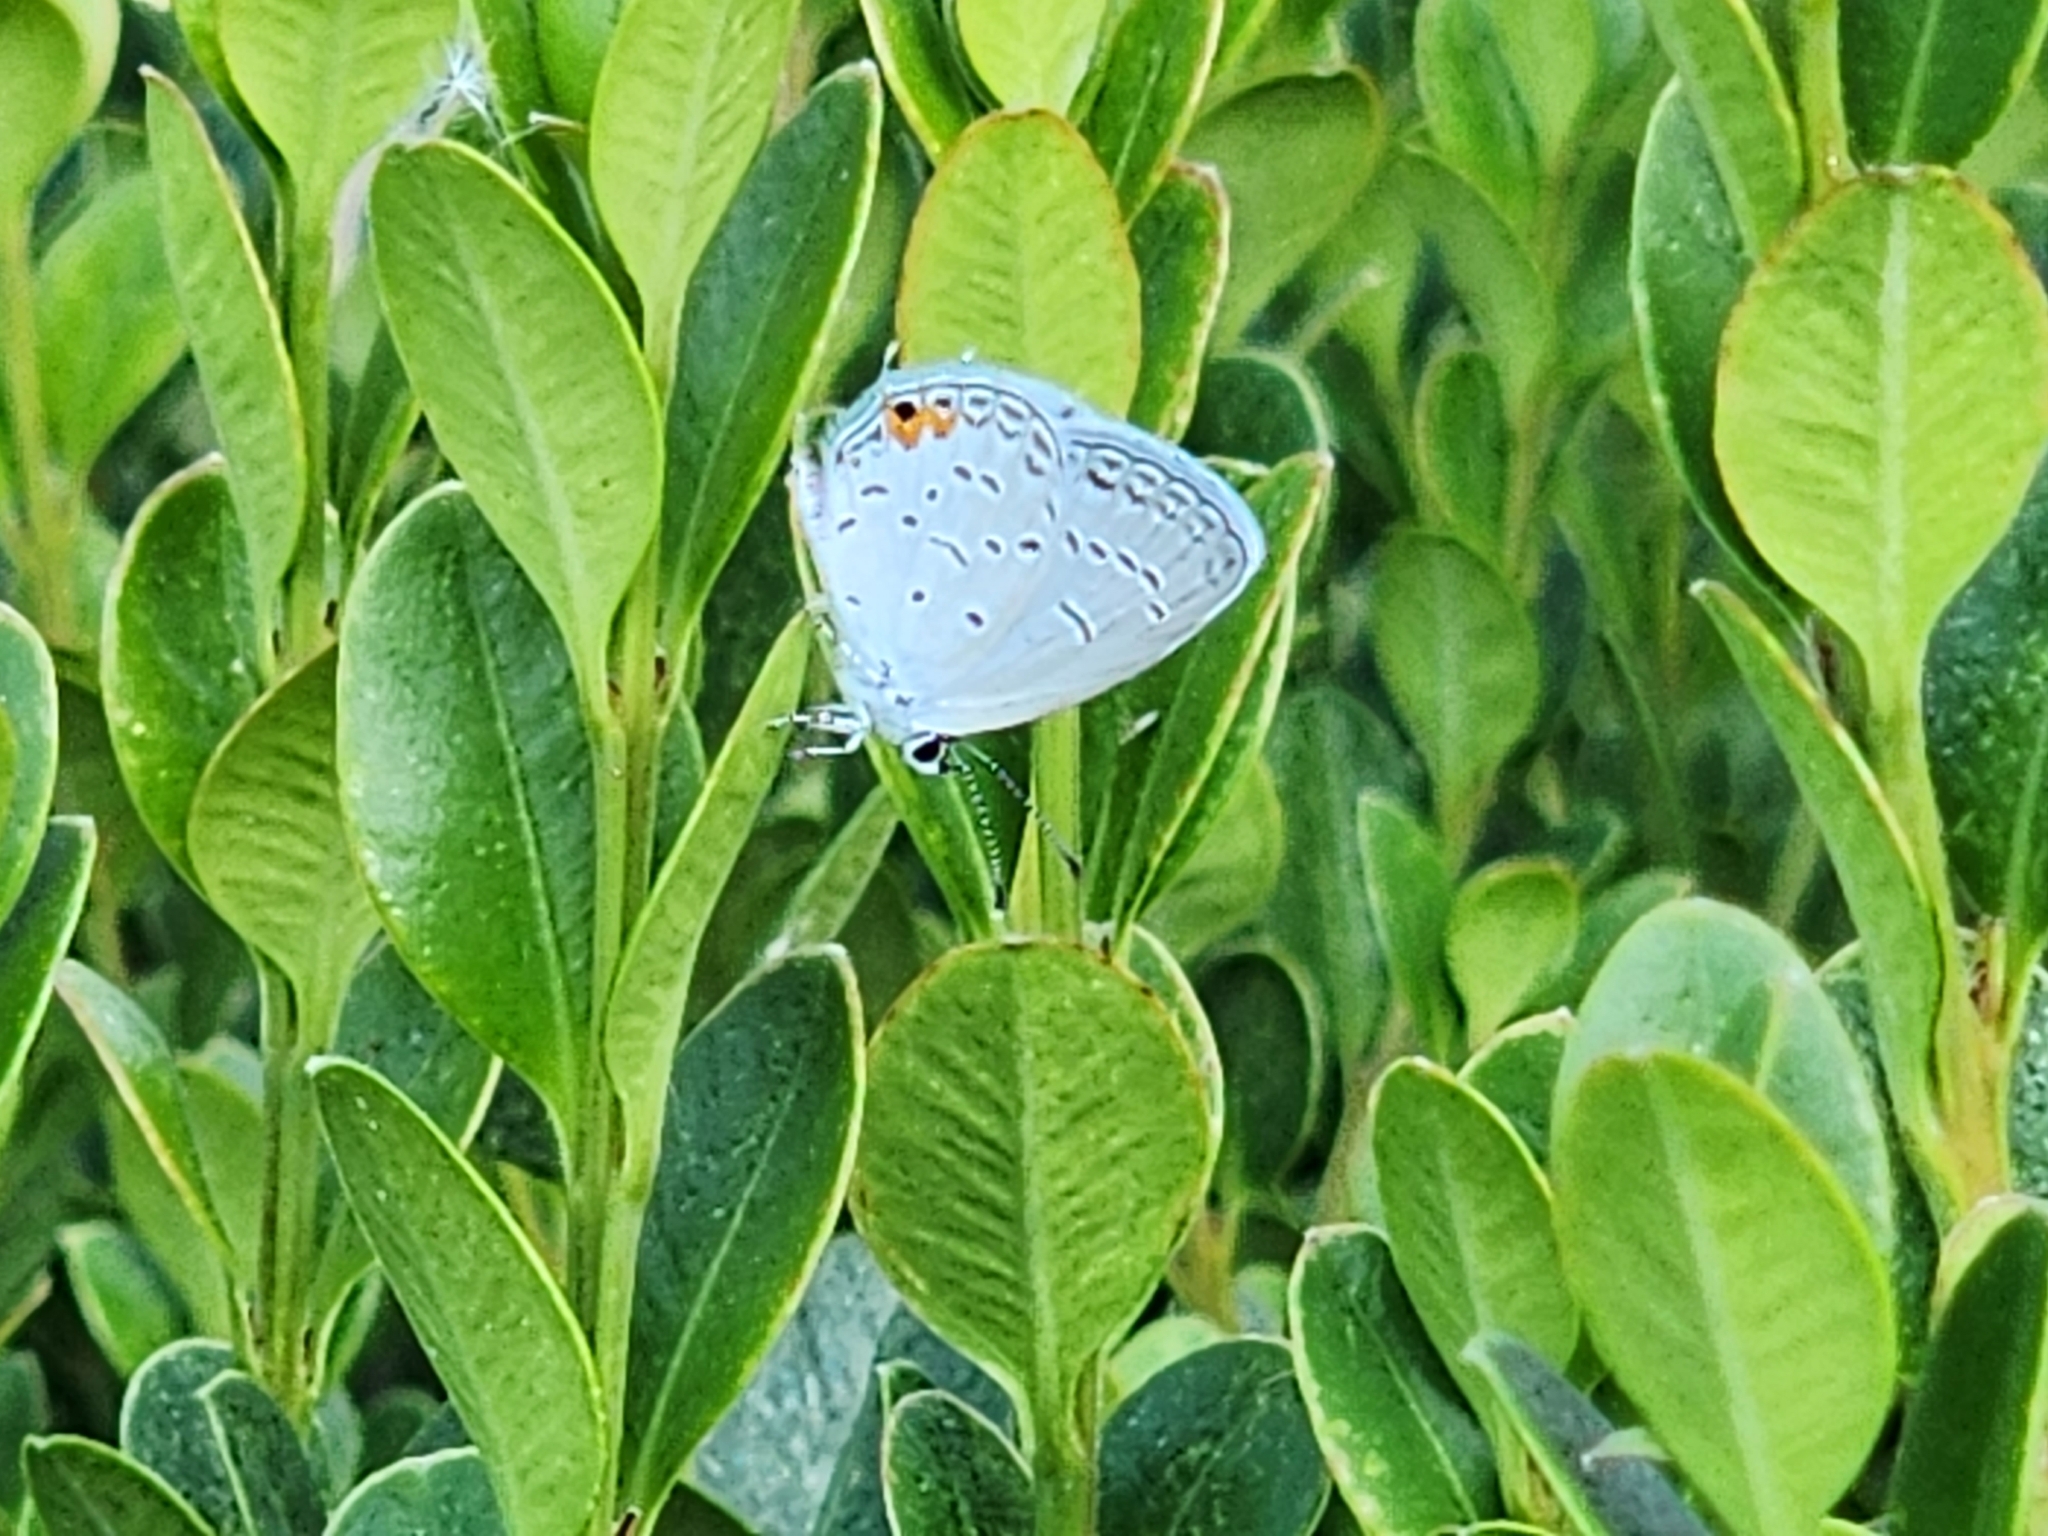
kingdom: Animalia
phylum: Arthropoda
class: Insecta
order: Lepidoptera
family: Lycaenidae
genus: Elkalyce
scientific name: Elkalyce comyntas
